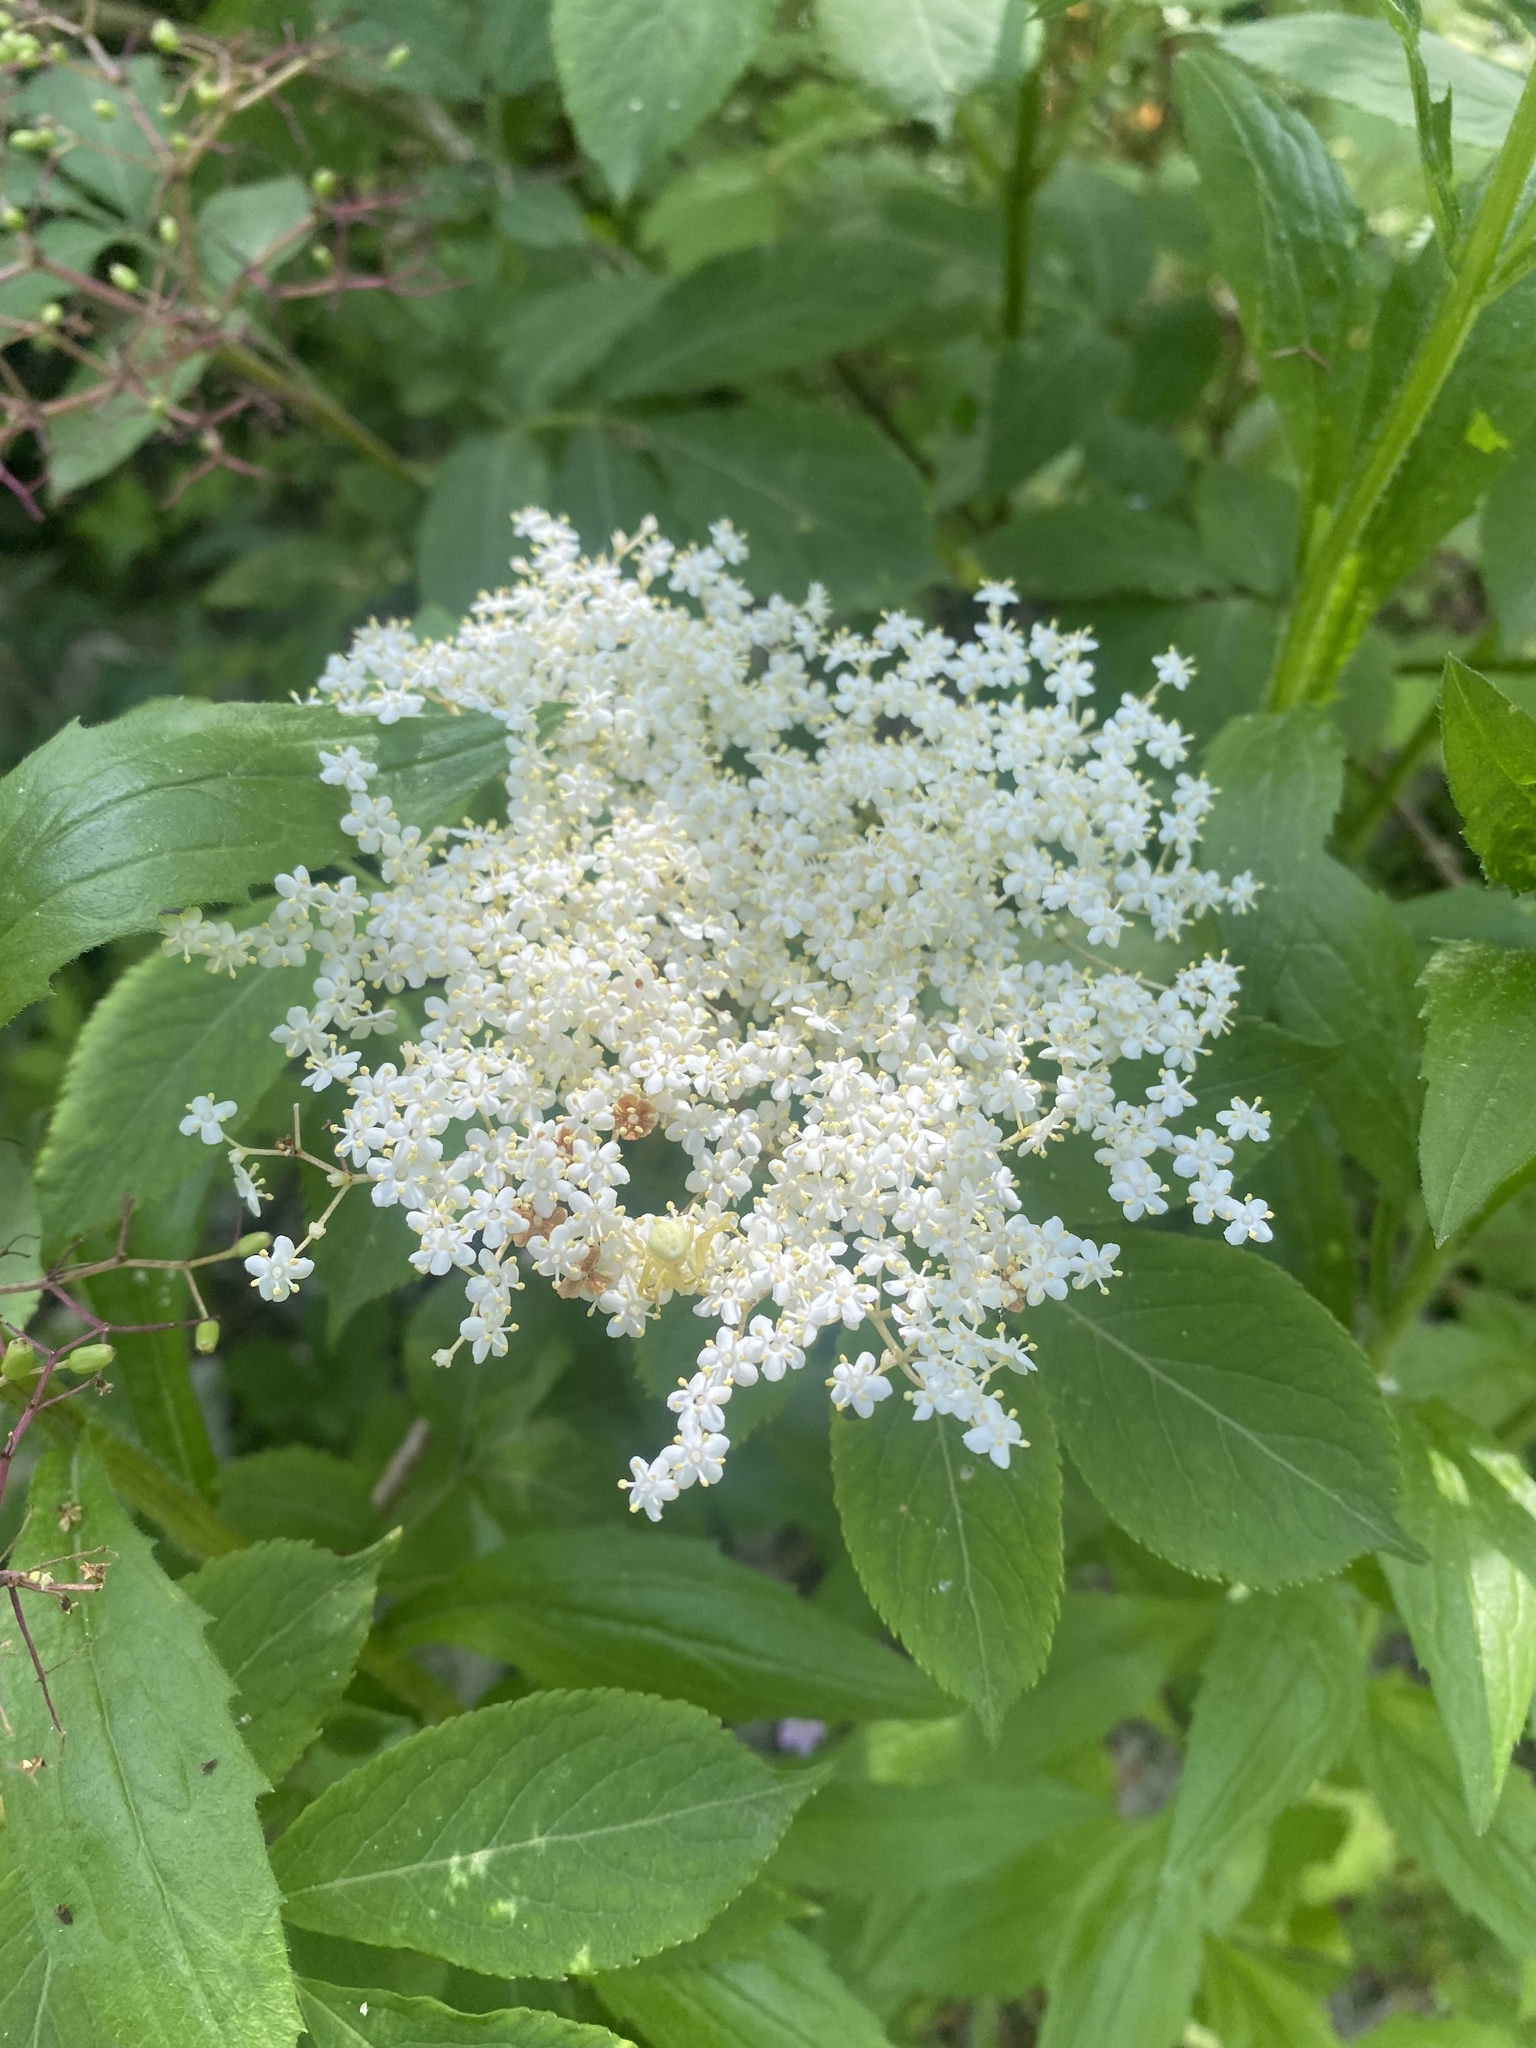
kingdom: Plantae
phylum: Tracheophyta
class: Magnoliopsida
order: Dipsacales
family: Viburnaceae
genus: Sambucus
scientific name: Sambucus nigra
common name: Elder
